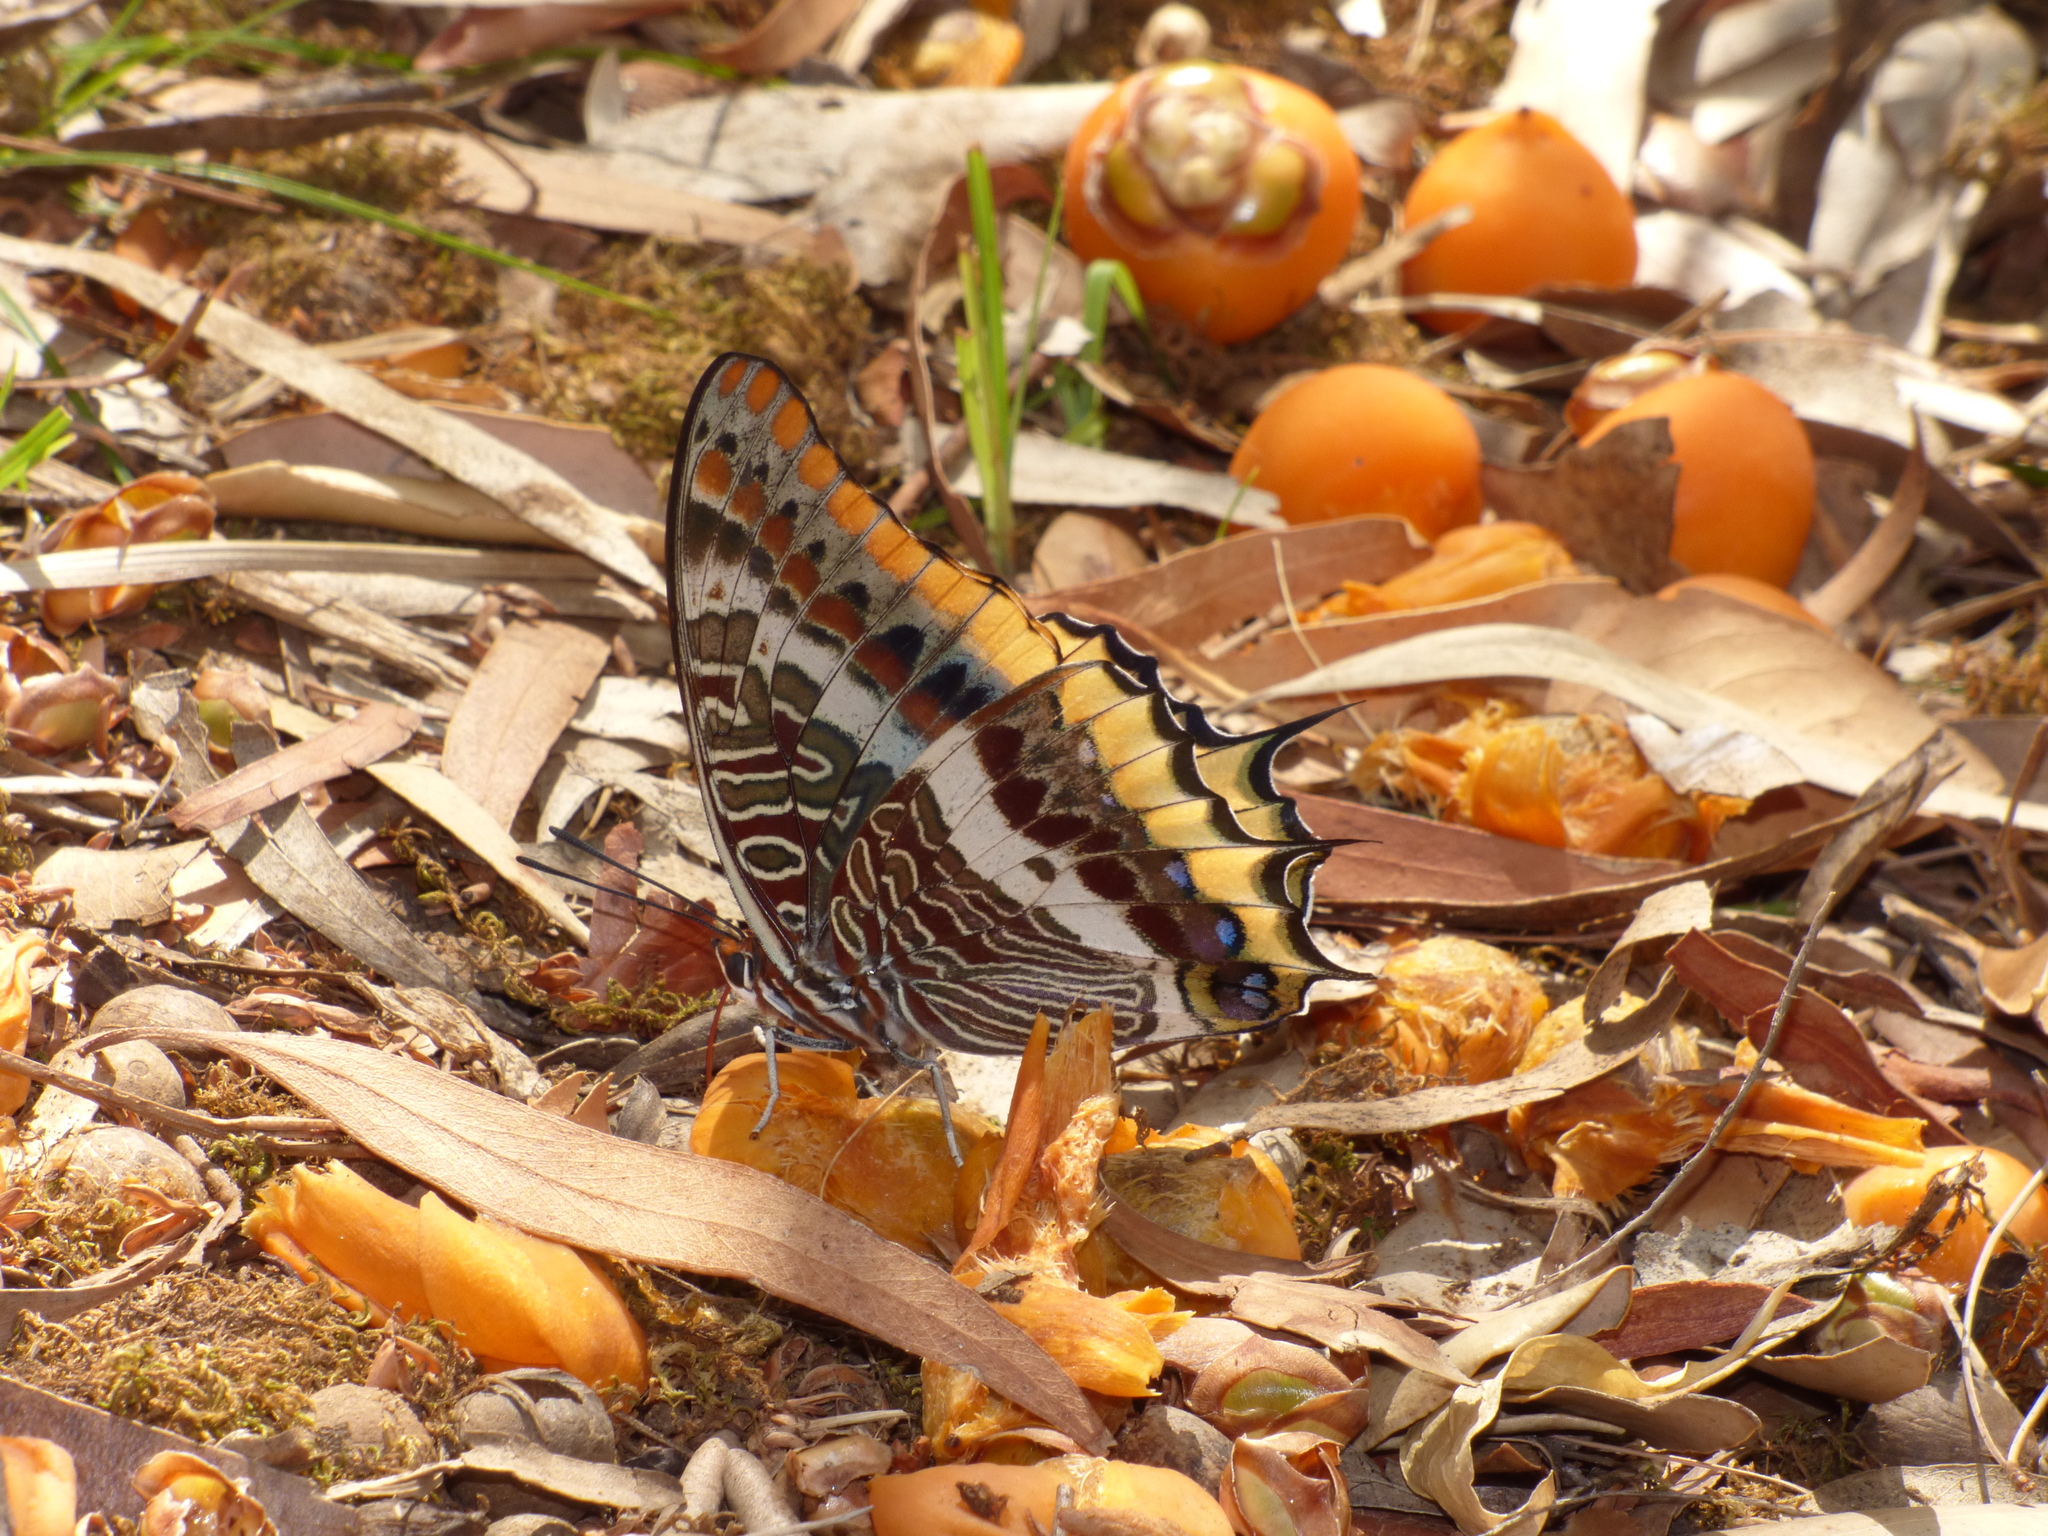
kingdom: Animalia
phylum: Arthropoda
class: Insecta
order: Lepidoptera
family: Nymphalidae
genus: Charaxes
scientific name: Charaxes jasius
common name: Two tailed pasha
